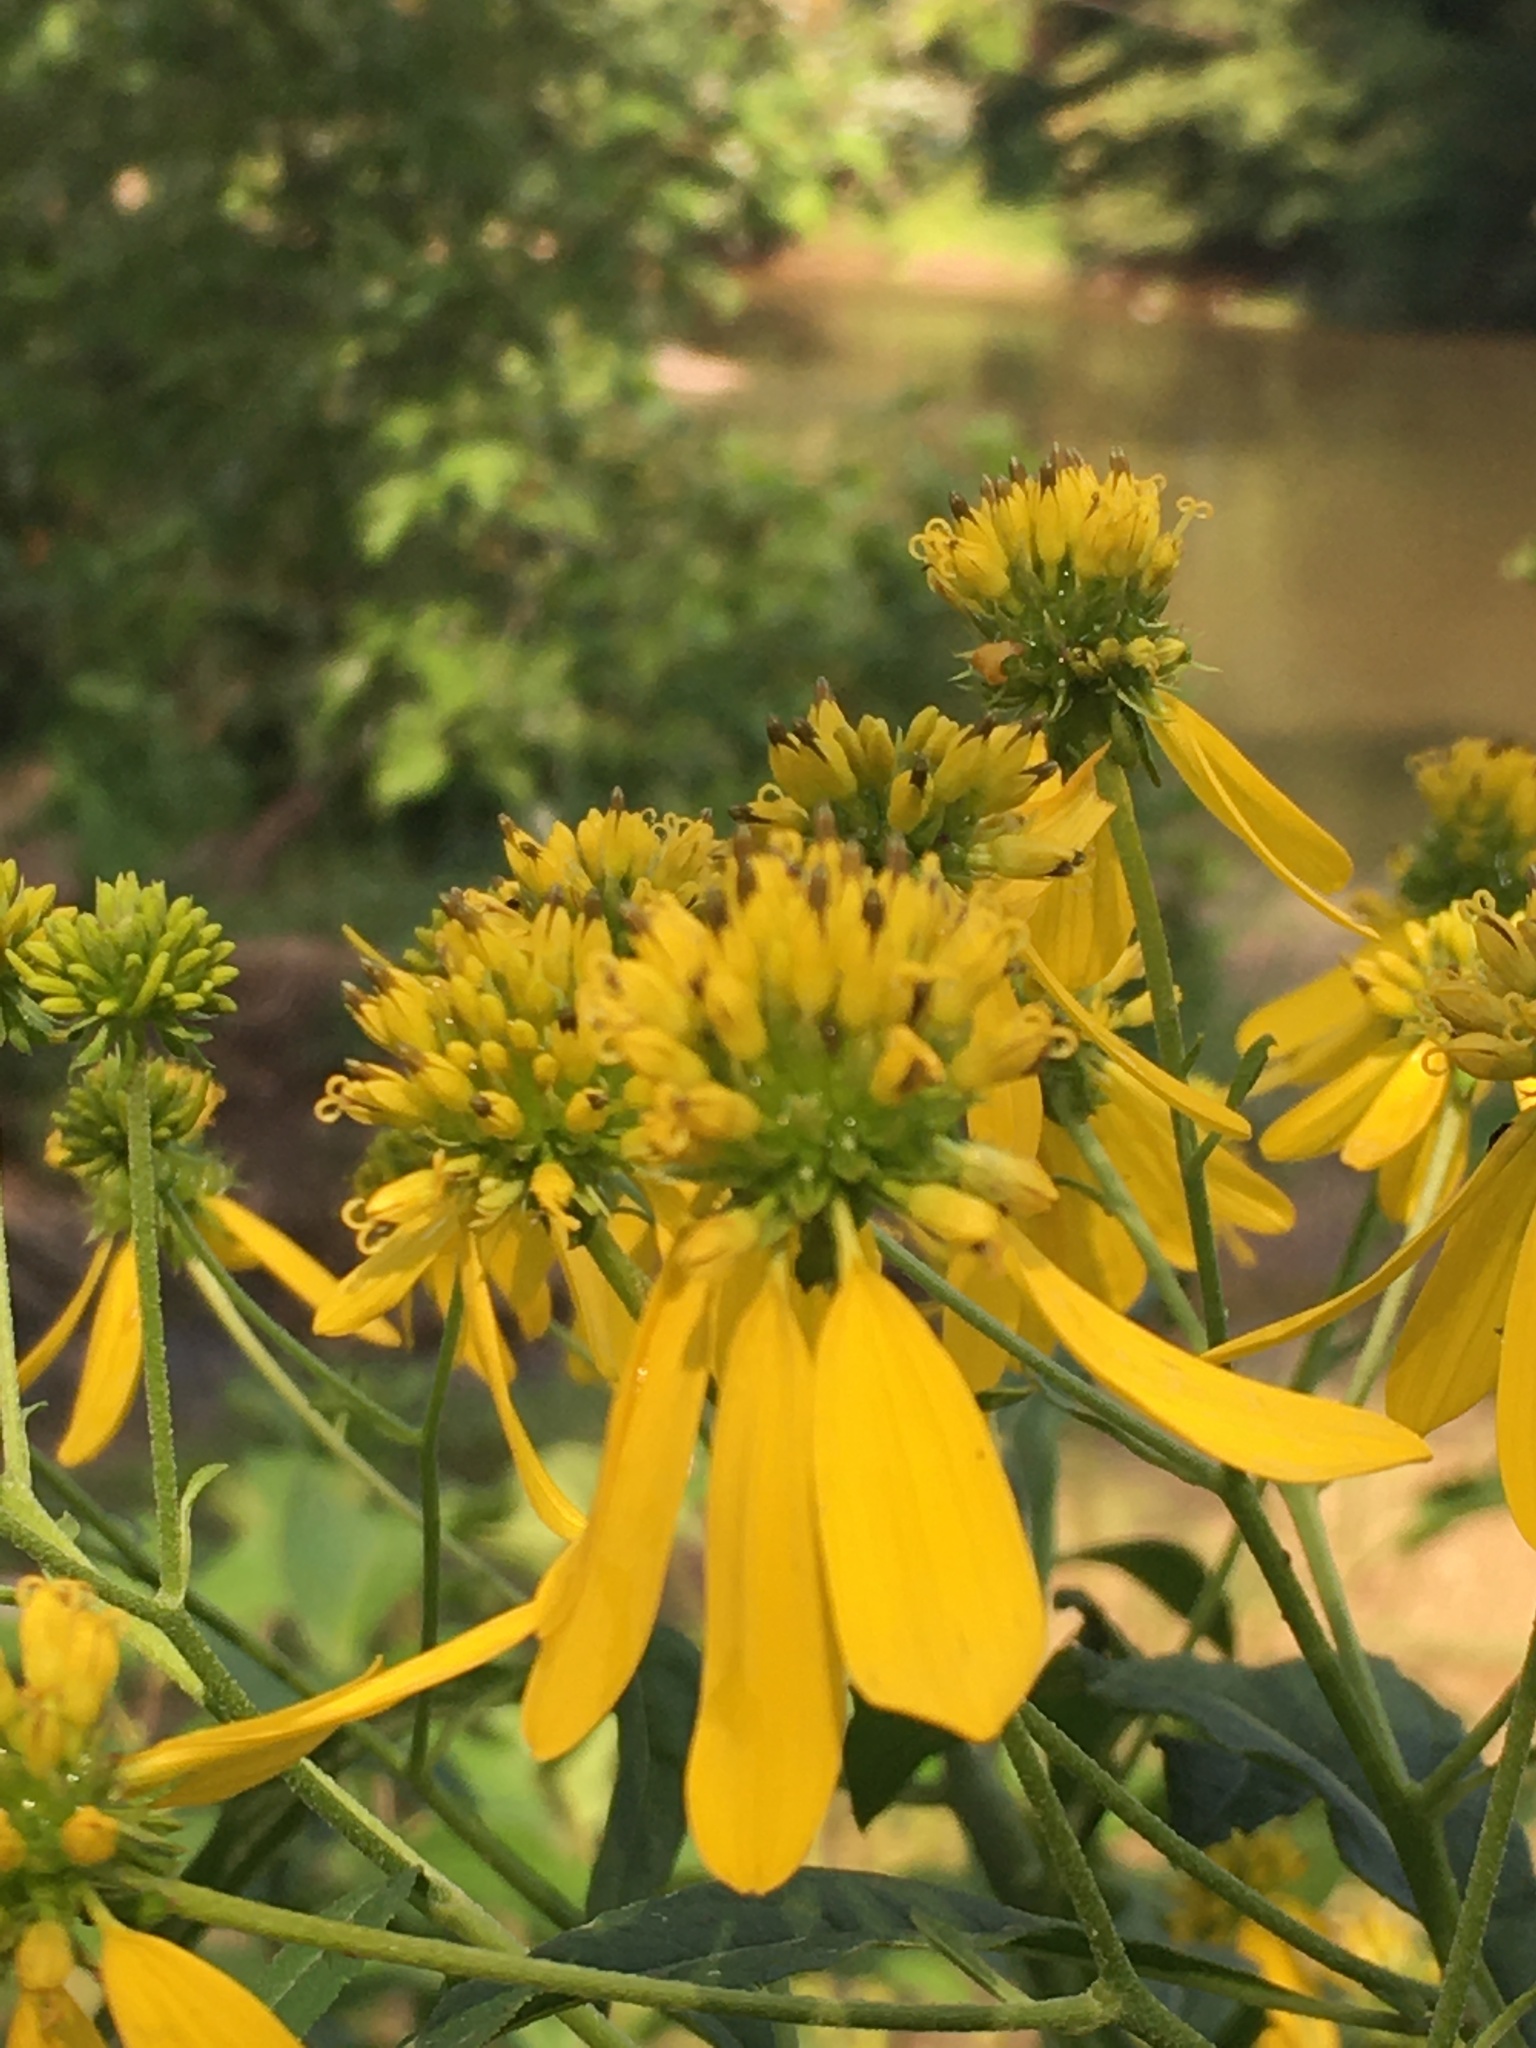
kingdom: Plantae
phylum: Tracheophyta
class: Magnoliopsida
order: Asterales
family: Asteraceae
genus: Verbesina
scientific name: Verbesina alternifolia
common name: Wingstem
